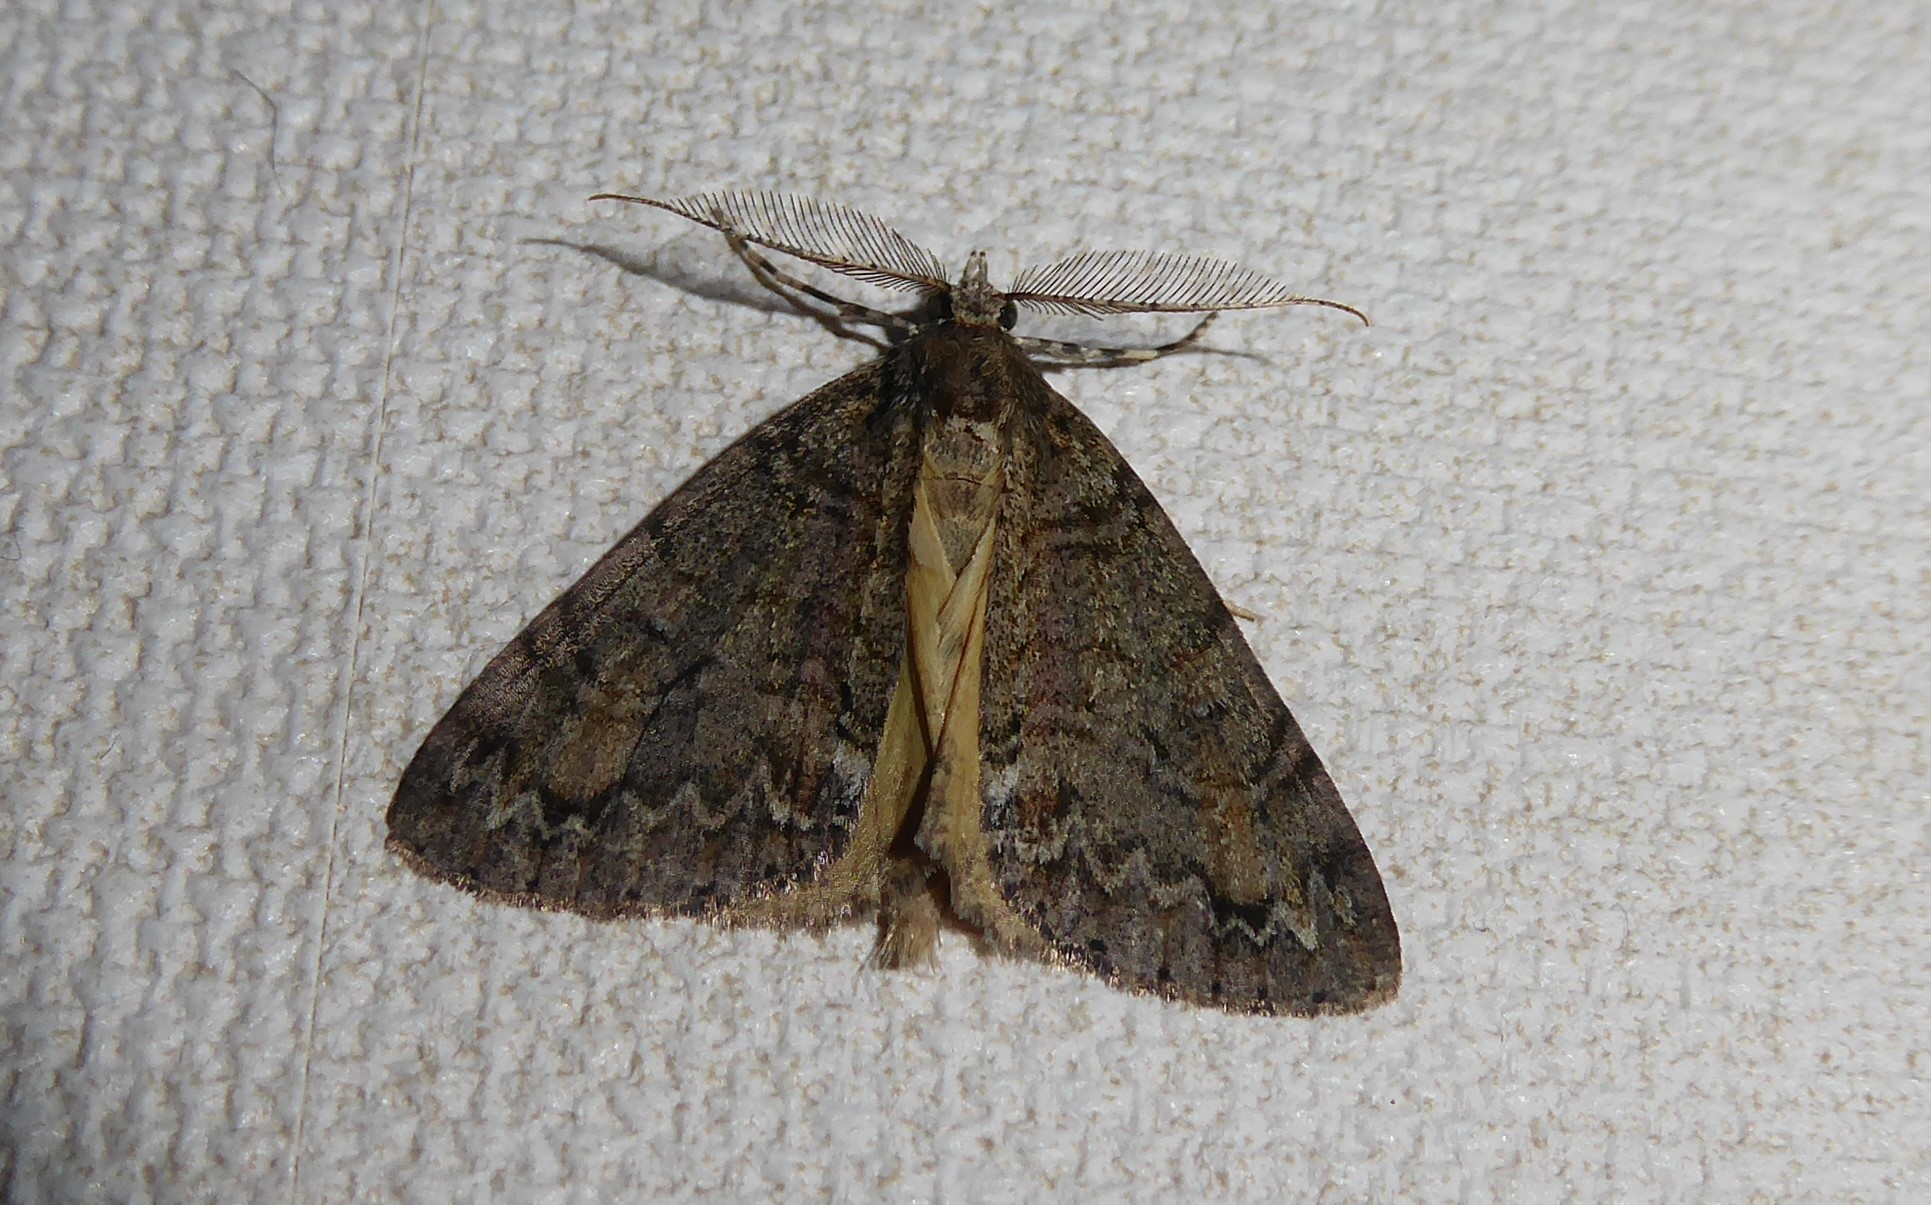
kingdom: Animalia
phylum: Arthropoda
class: Insecta
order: Lepidoptera
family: Geometridae
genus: Pseudocoremia
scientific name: Pseudocoremia suavis
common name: Common forest looper
